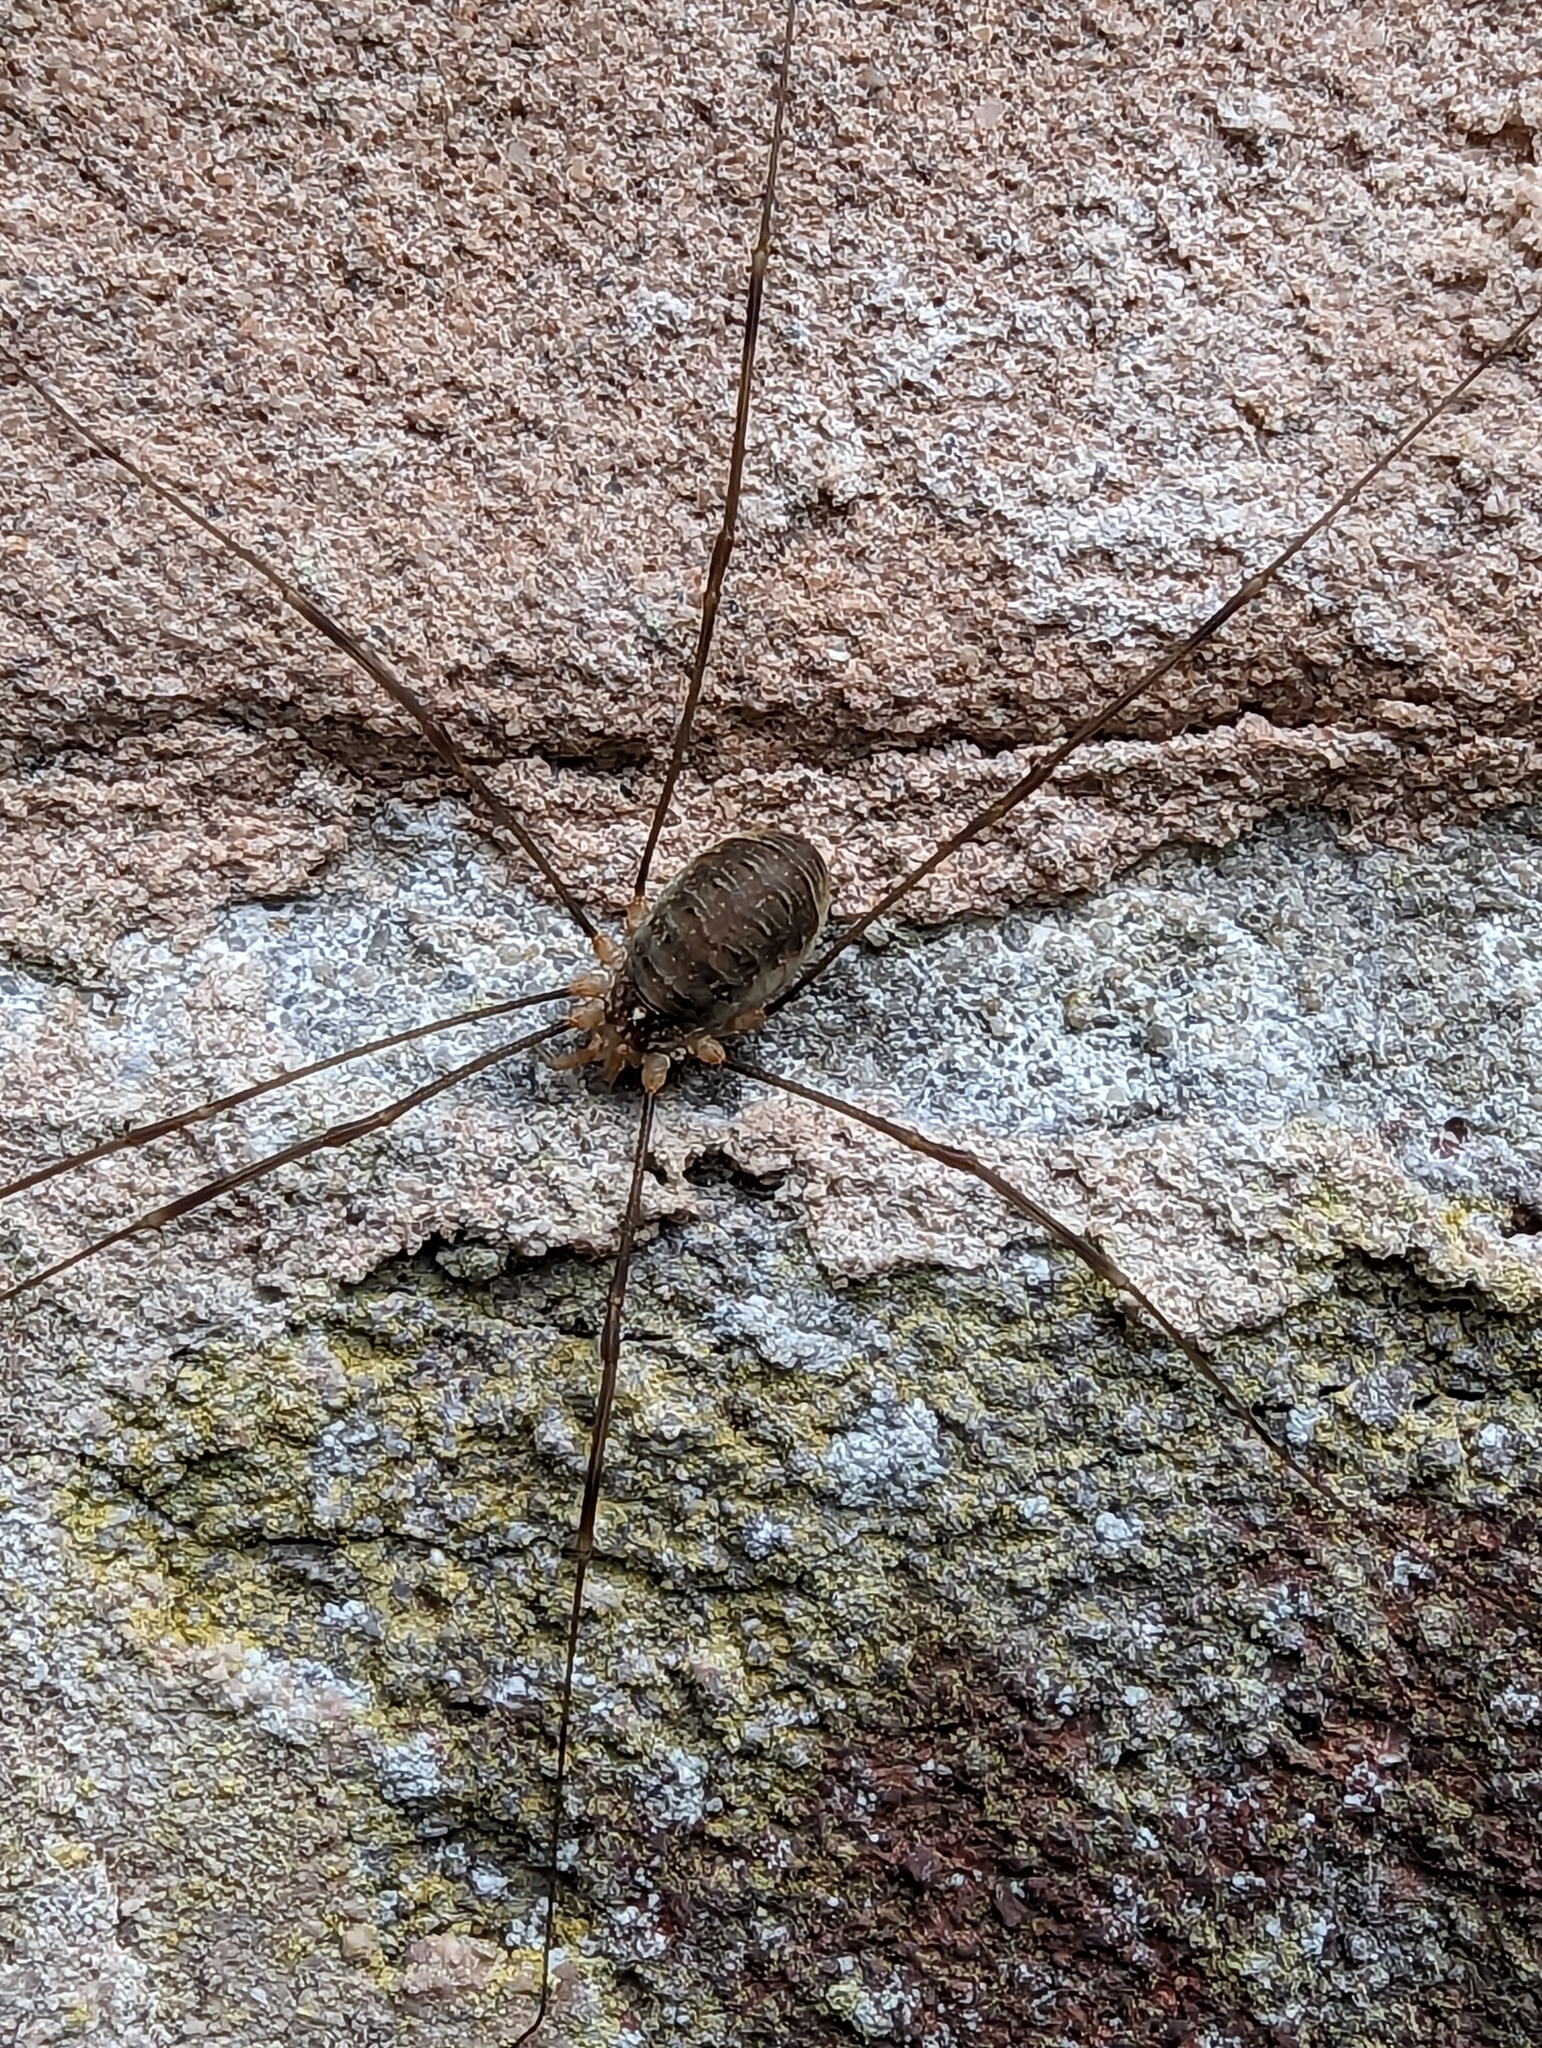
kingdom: Animalia
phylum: Arthropoda
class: Arachnida
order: Opiliones
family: Phalangiidae
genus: Opilio
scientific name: Opilio canestrinii
